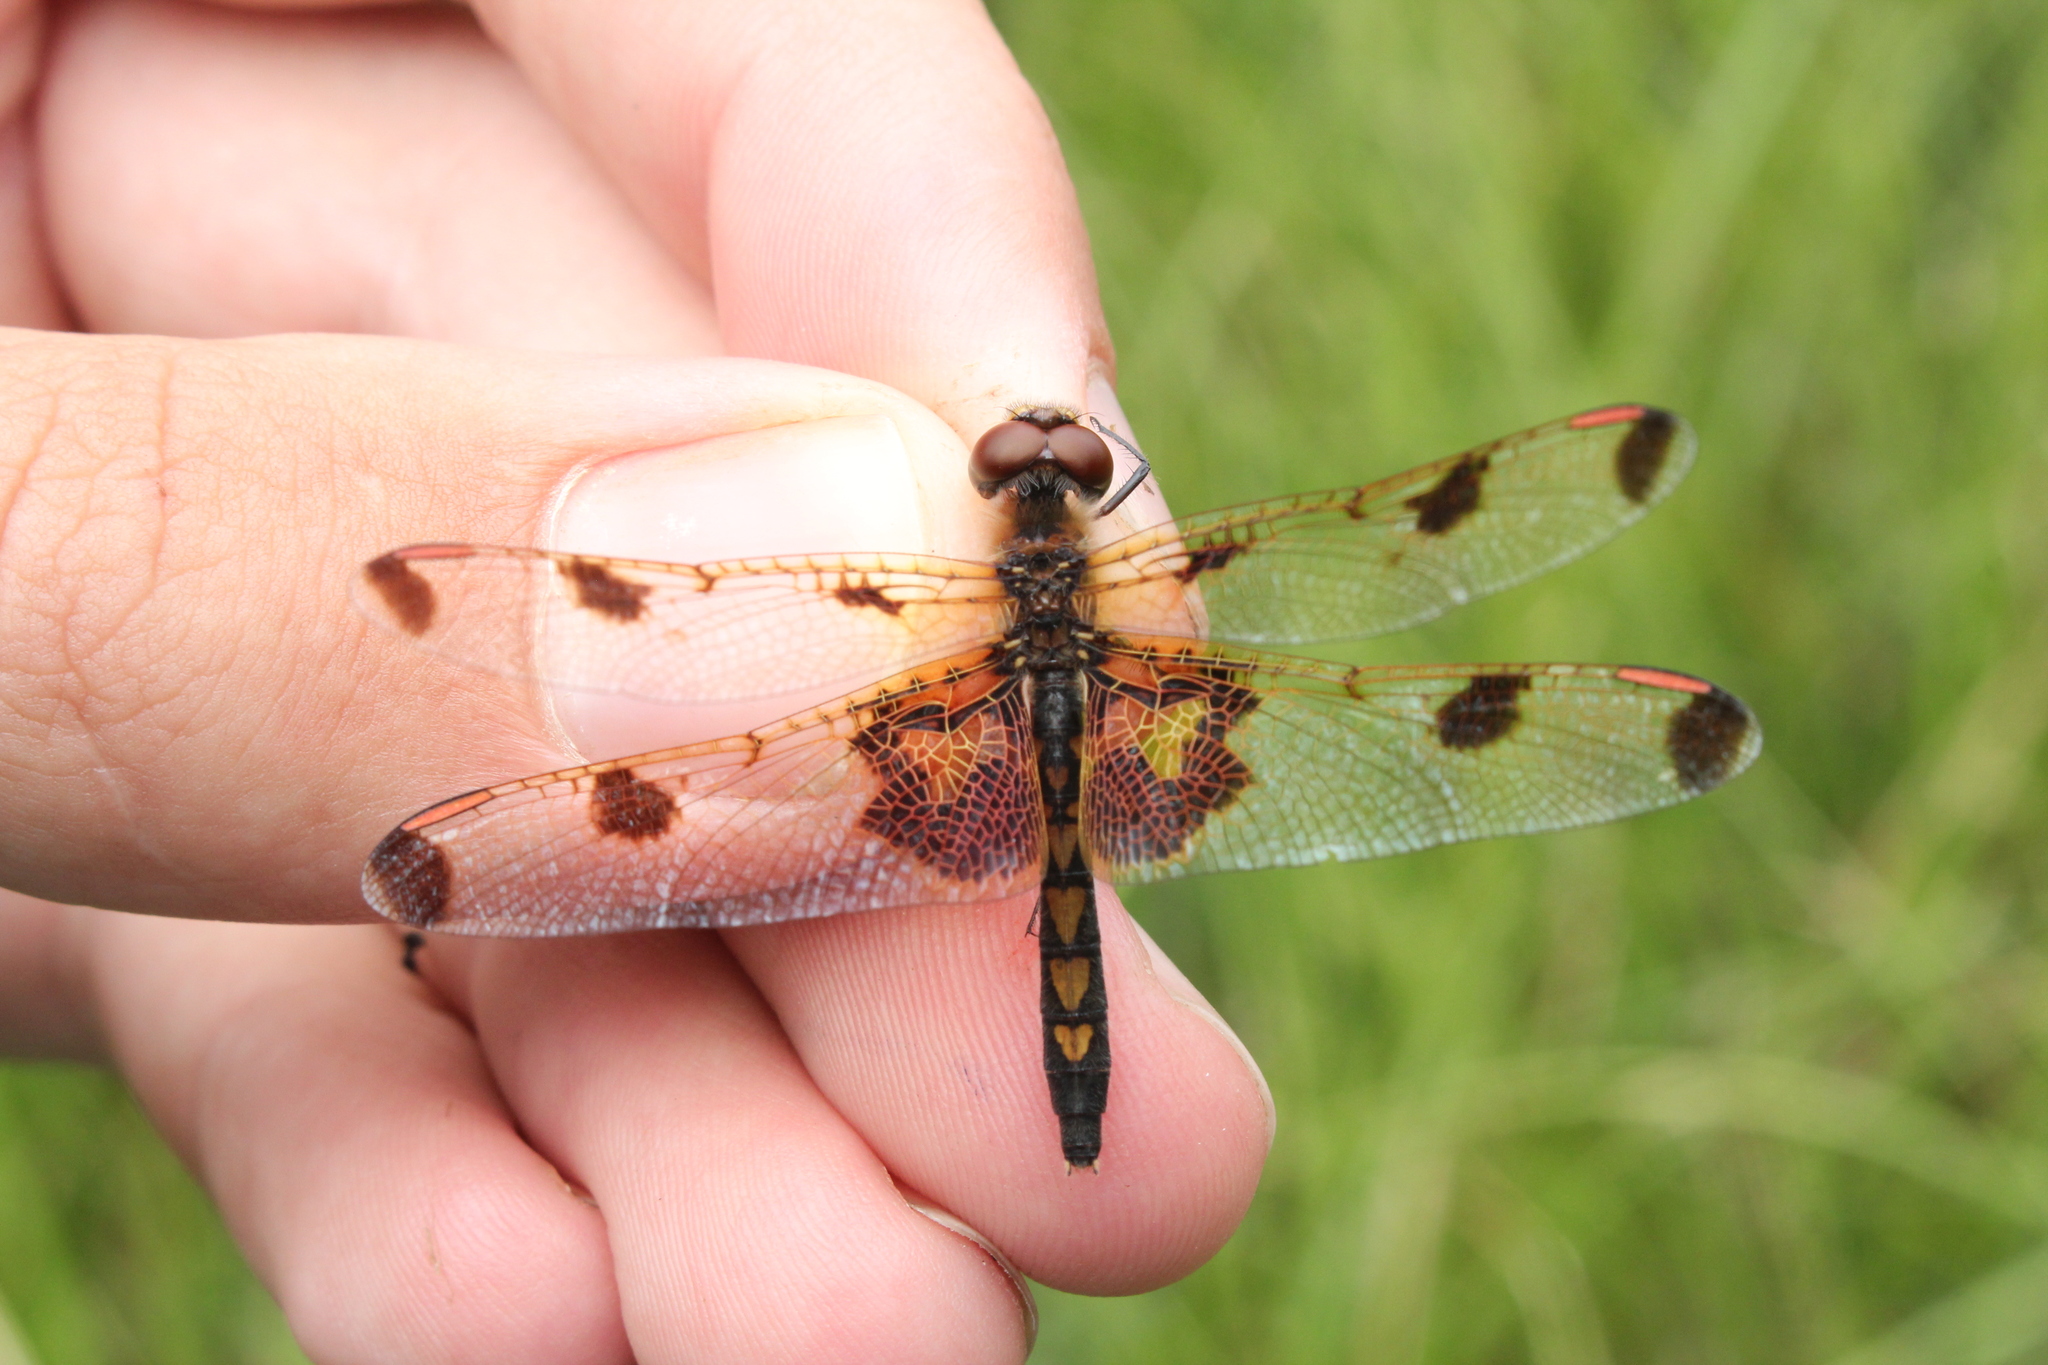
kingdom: Animalia
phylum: Arthropoda
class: Insecta
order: Odonata
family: Libellulidae
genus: Celithemis
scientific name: Celithemis elisa
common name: Calico pennant
